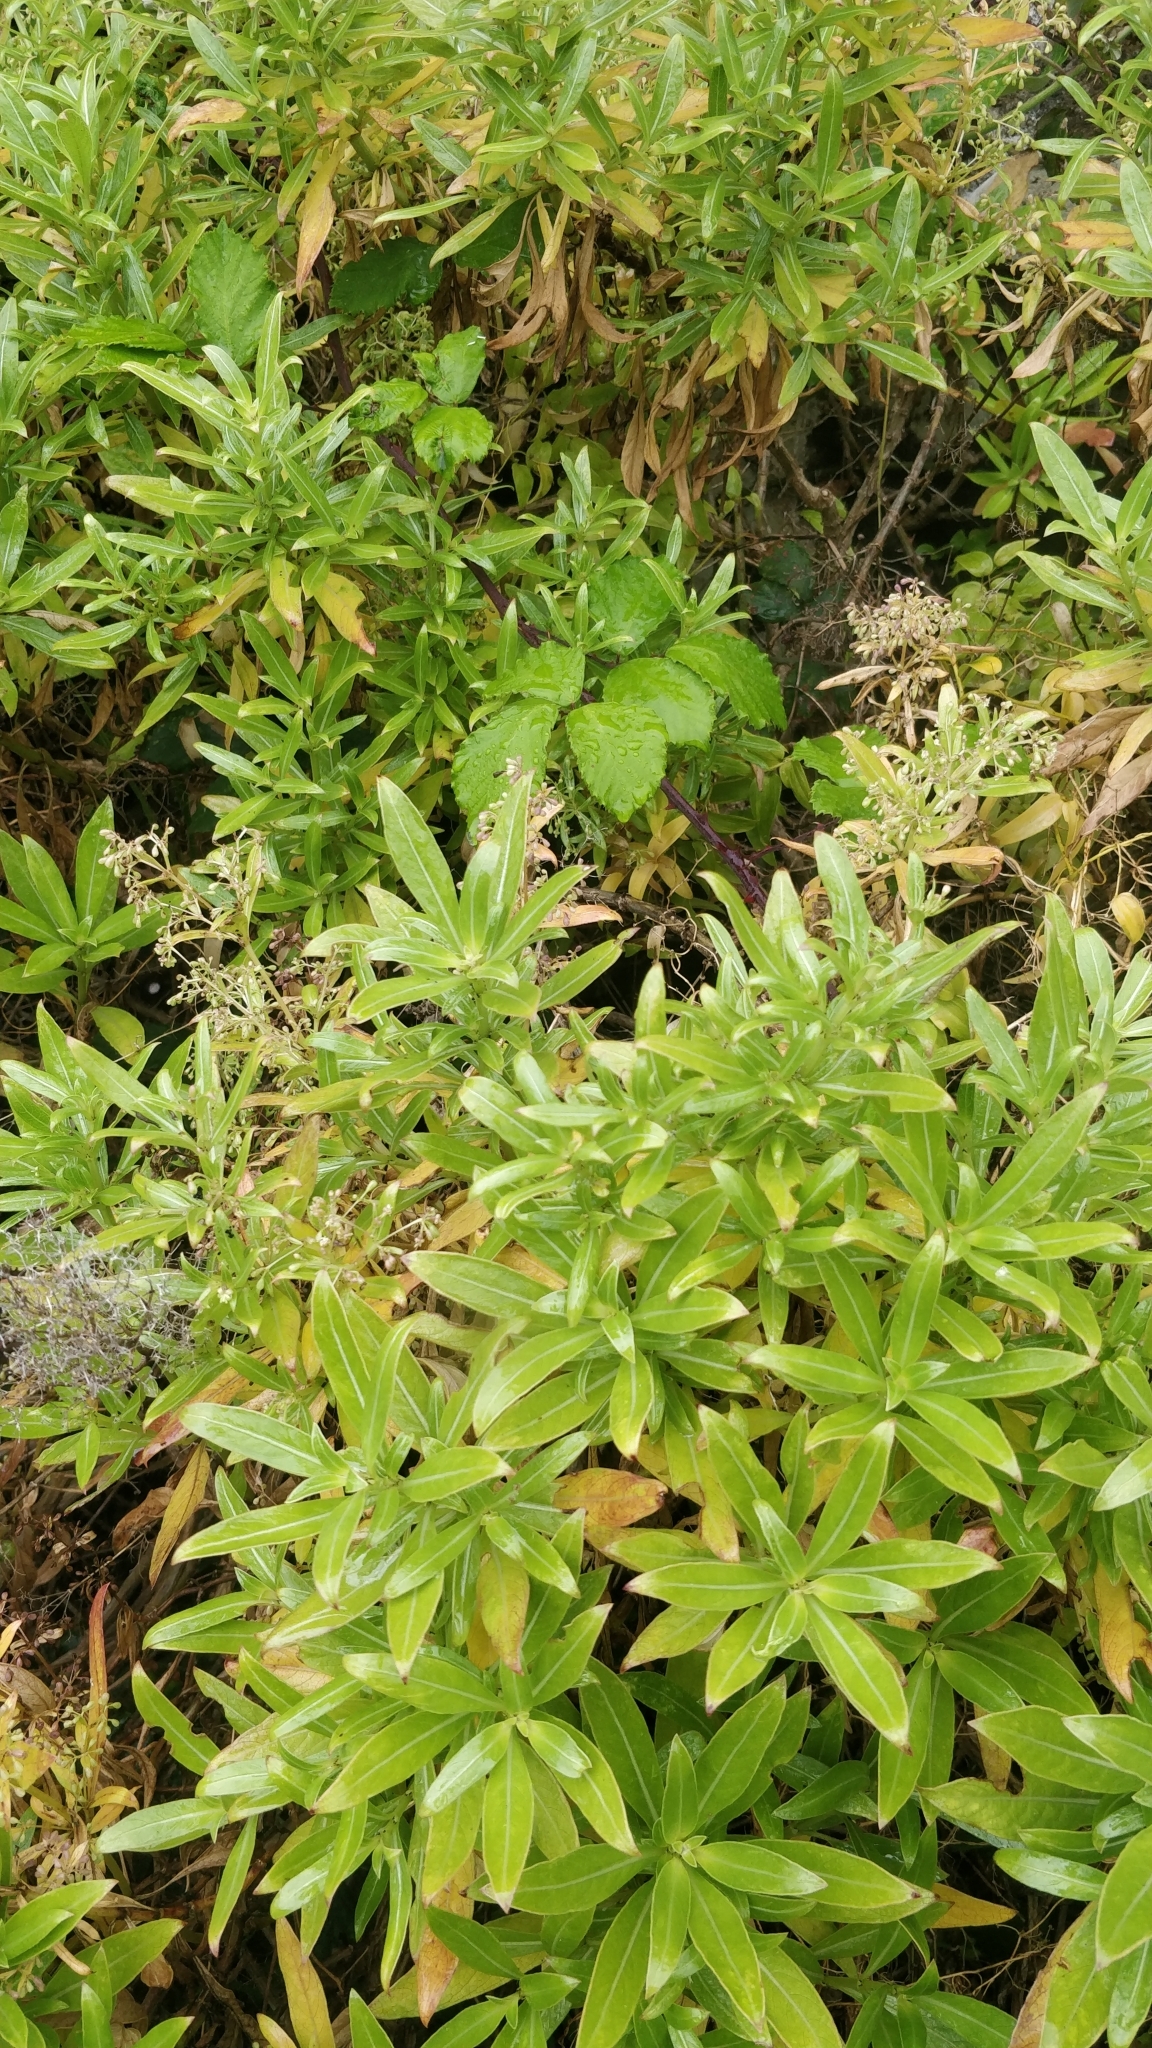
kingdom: Plantae
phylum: Tracheophyta
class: Magnoliopsida
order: Gentianales
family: Rubiaceae
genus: Phyllis
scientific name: Phyllis nobla
